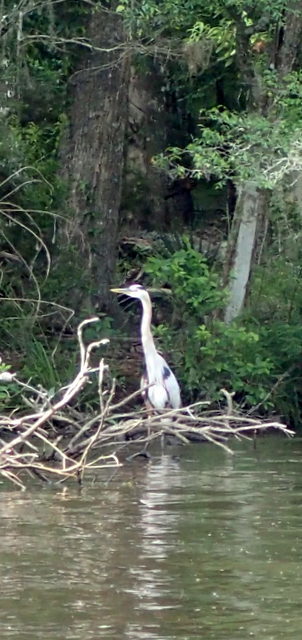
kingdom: Animalia
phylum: Chordata
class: Aves
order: Pelecaniformes
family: Ardeidae
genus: Ardea
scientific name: Ardea herodias
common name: Great blue heron
